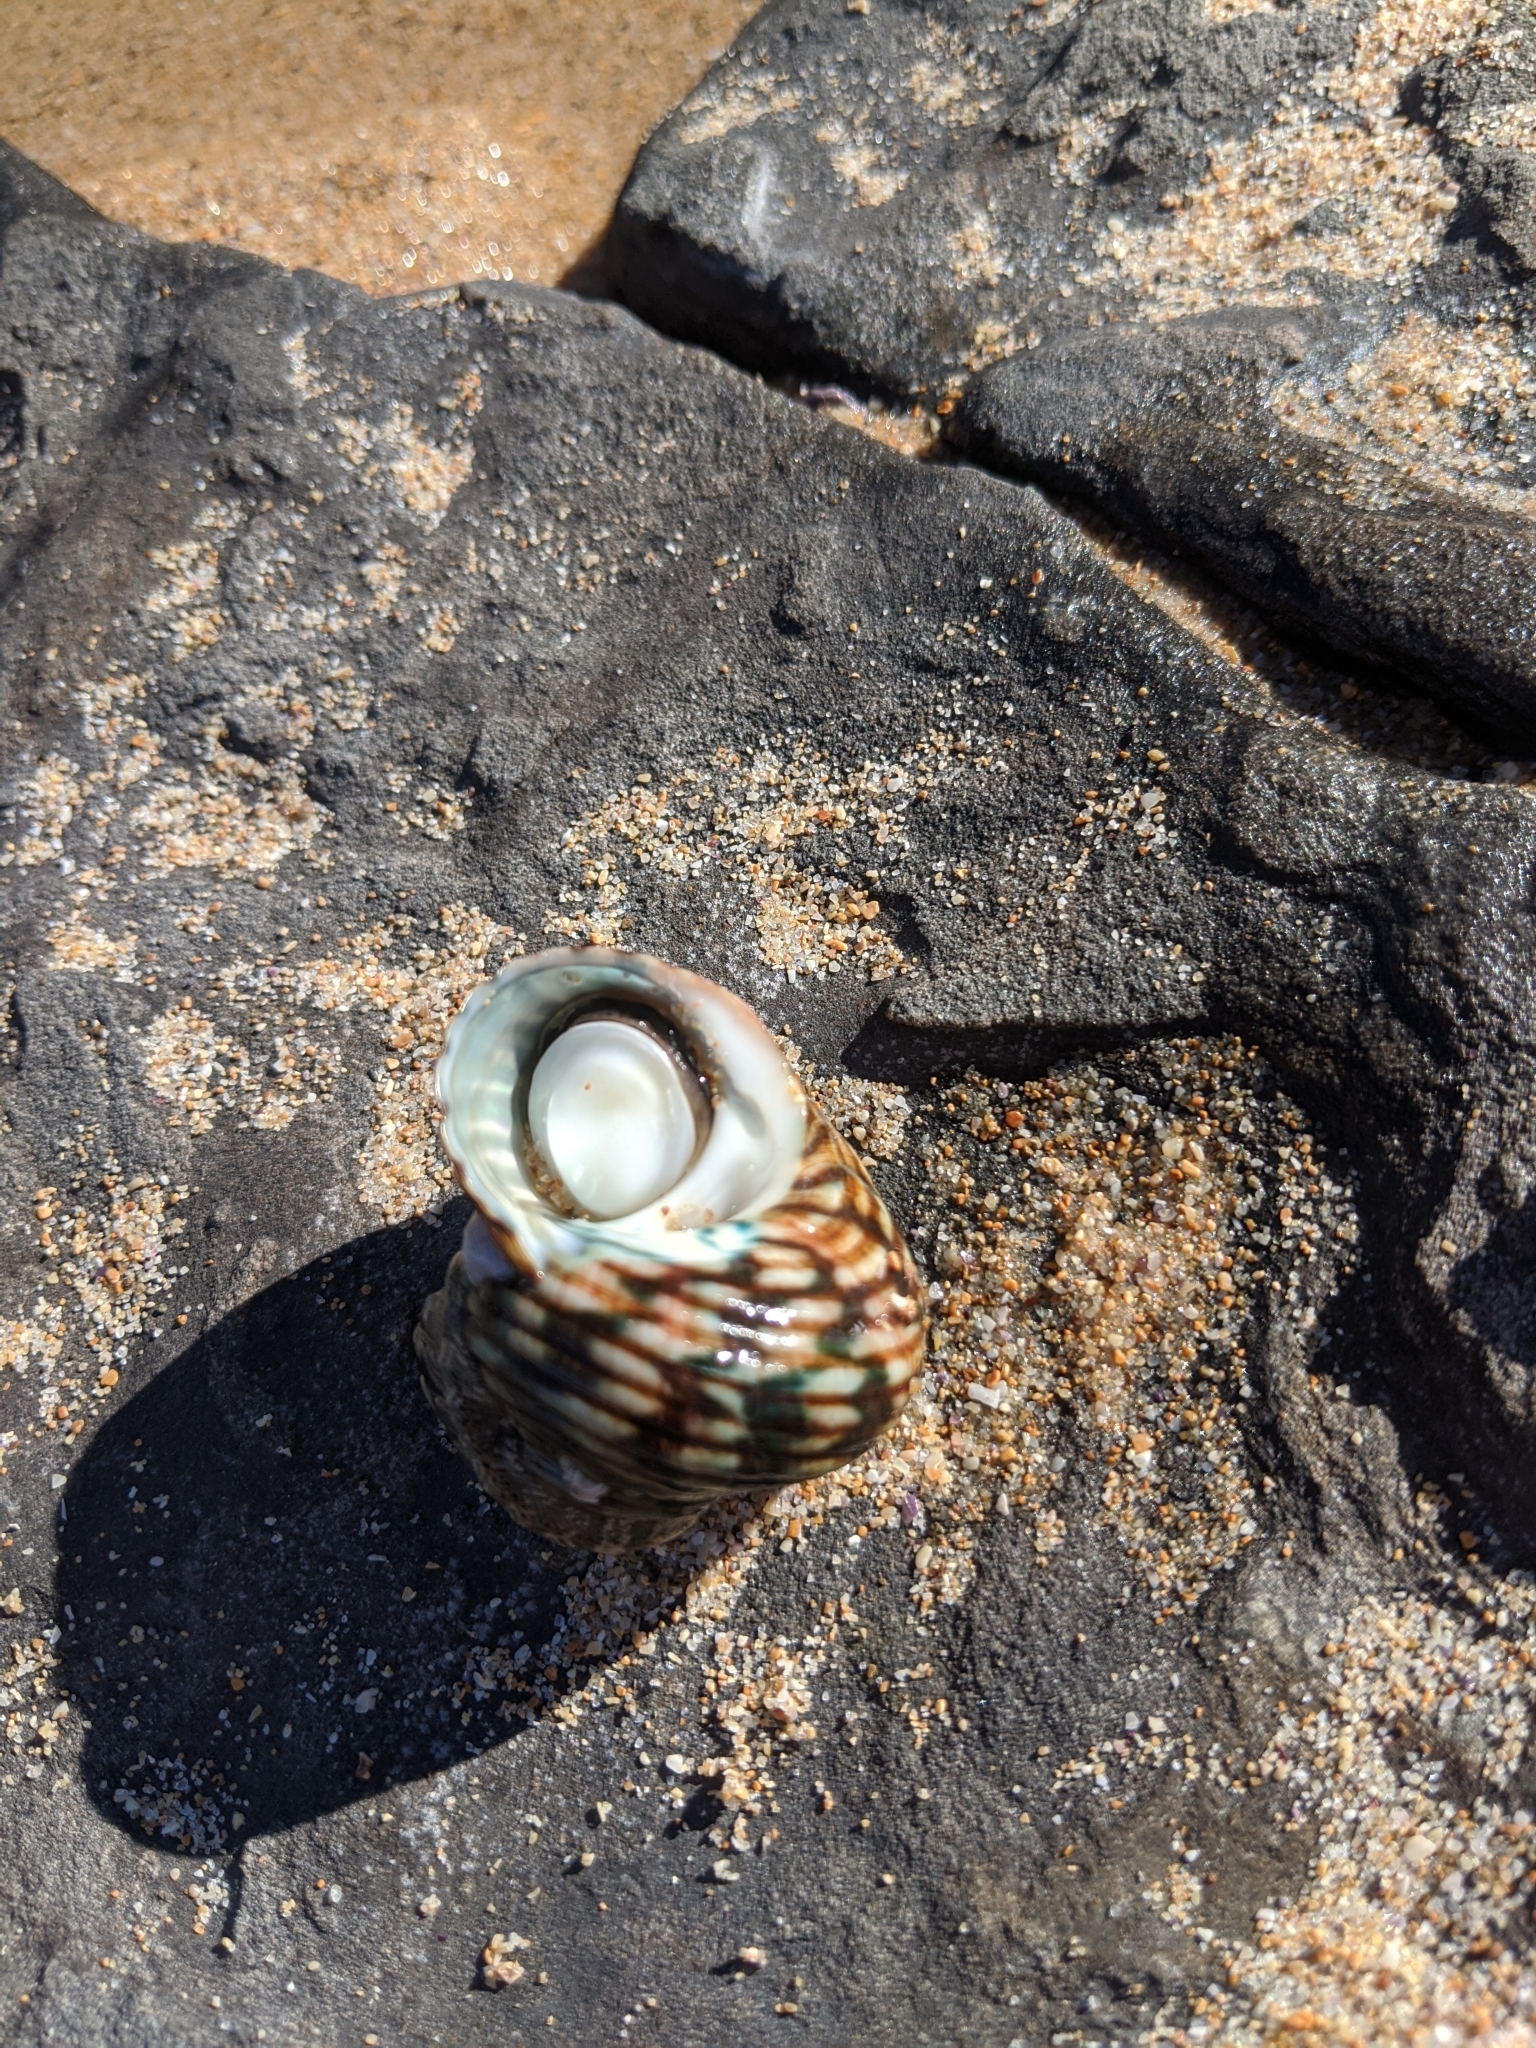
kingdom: Animalia
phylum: Mollusca
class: Gastropoda
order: Trochida
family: Turbinidae
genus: Lunella
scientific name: Lunella undulata
